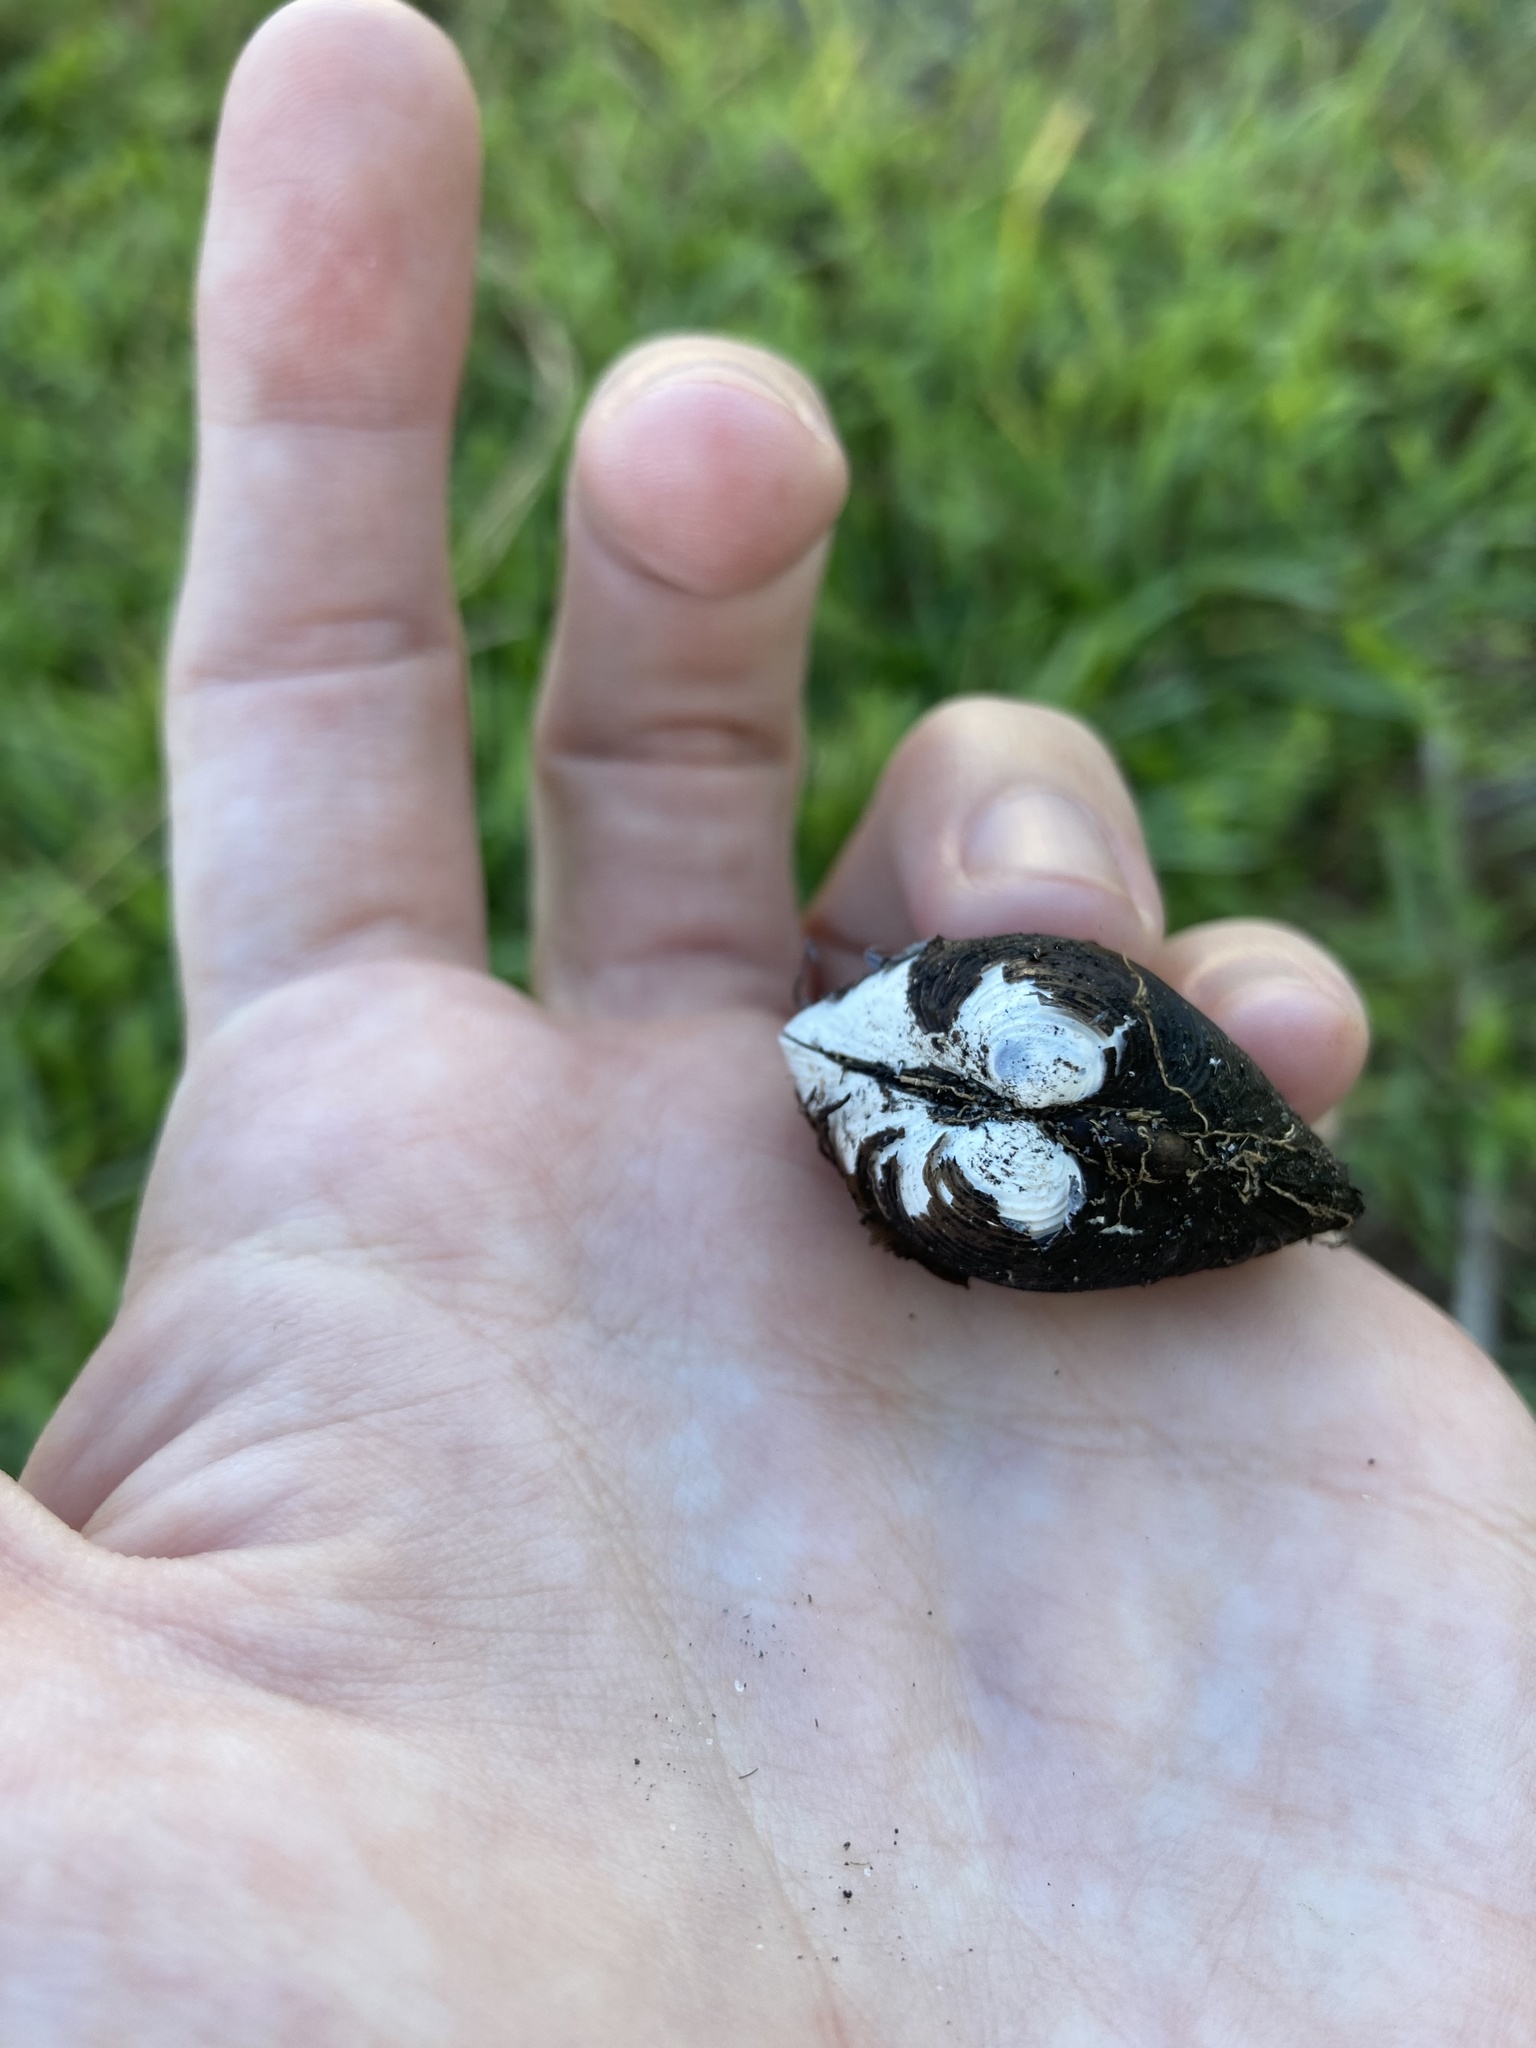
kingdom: Animalia
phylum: Mollusca
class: Bivalvia
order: Venerida
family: Cyrenidae
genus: Corbicula
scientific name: Corbicula fluminea
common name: Asian clam
